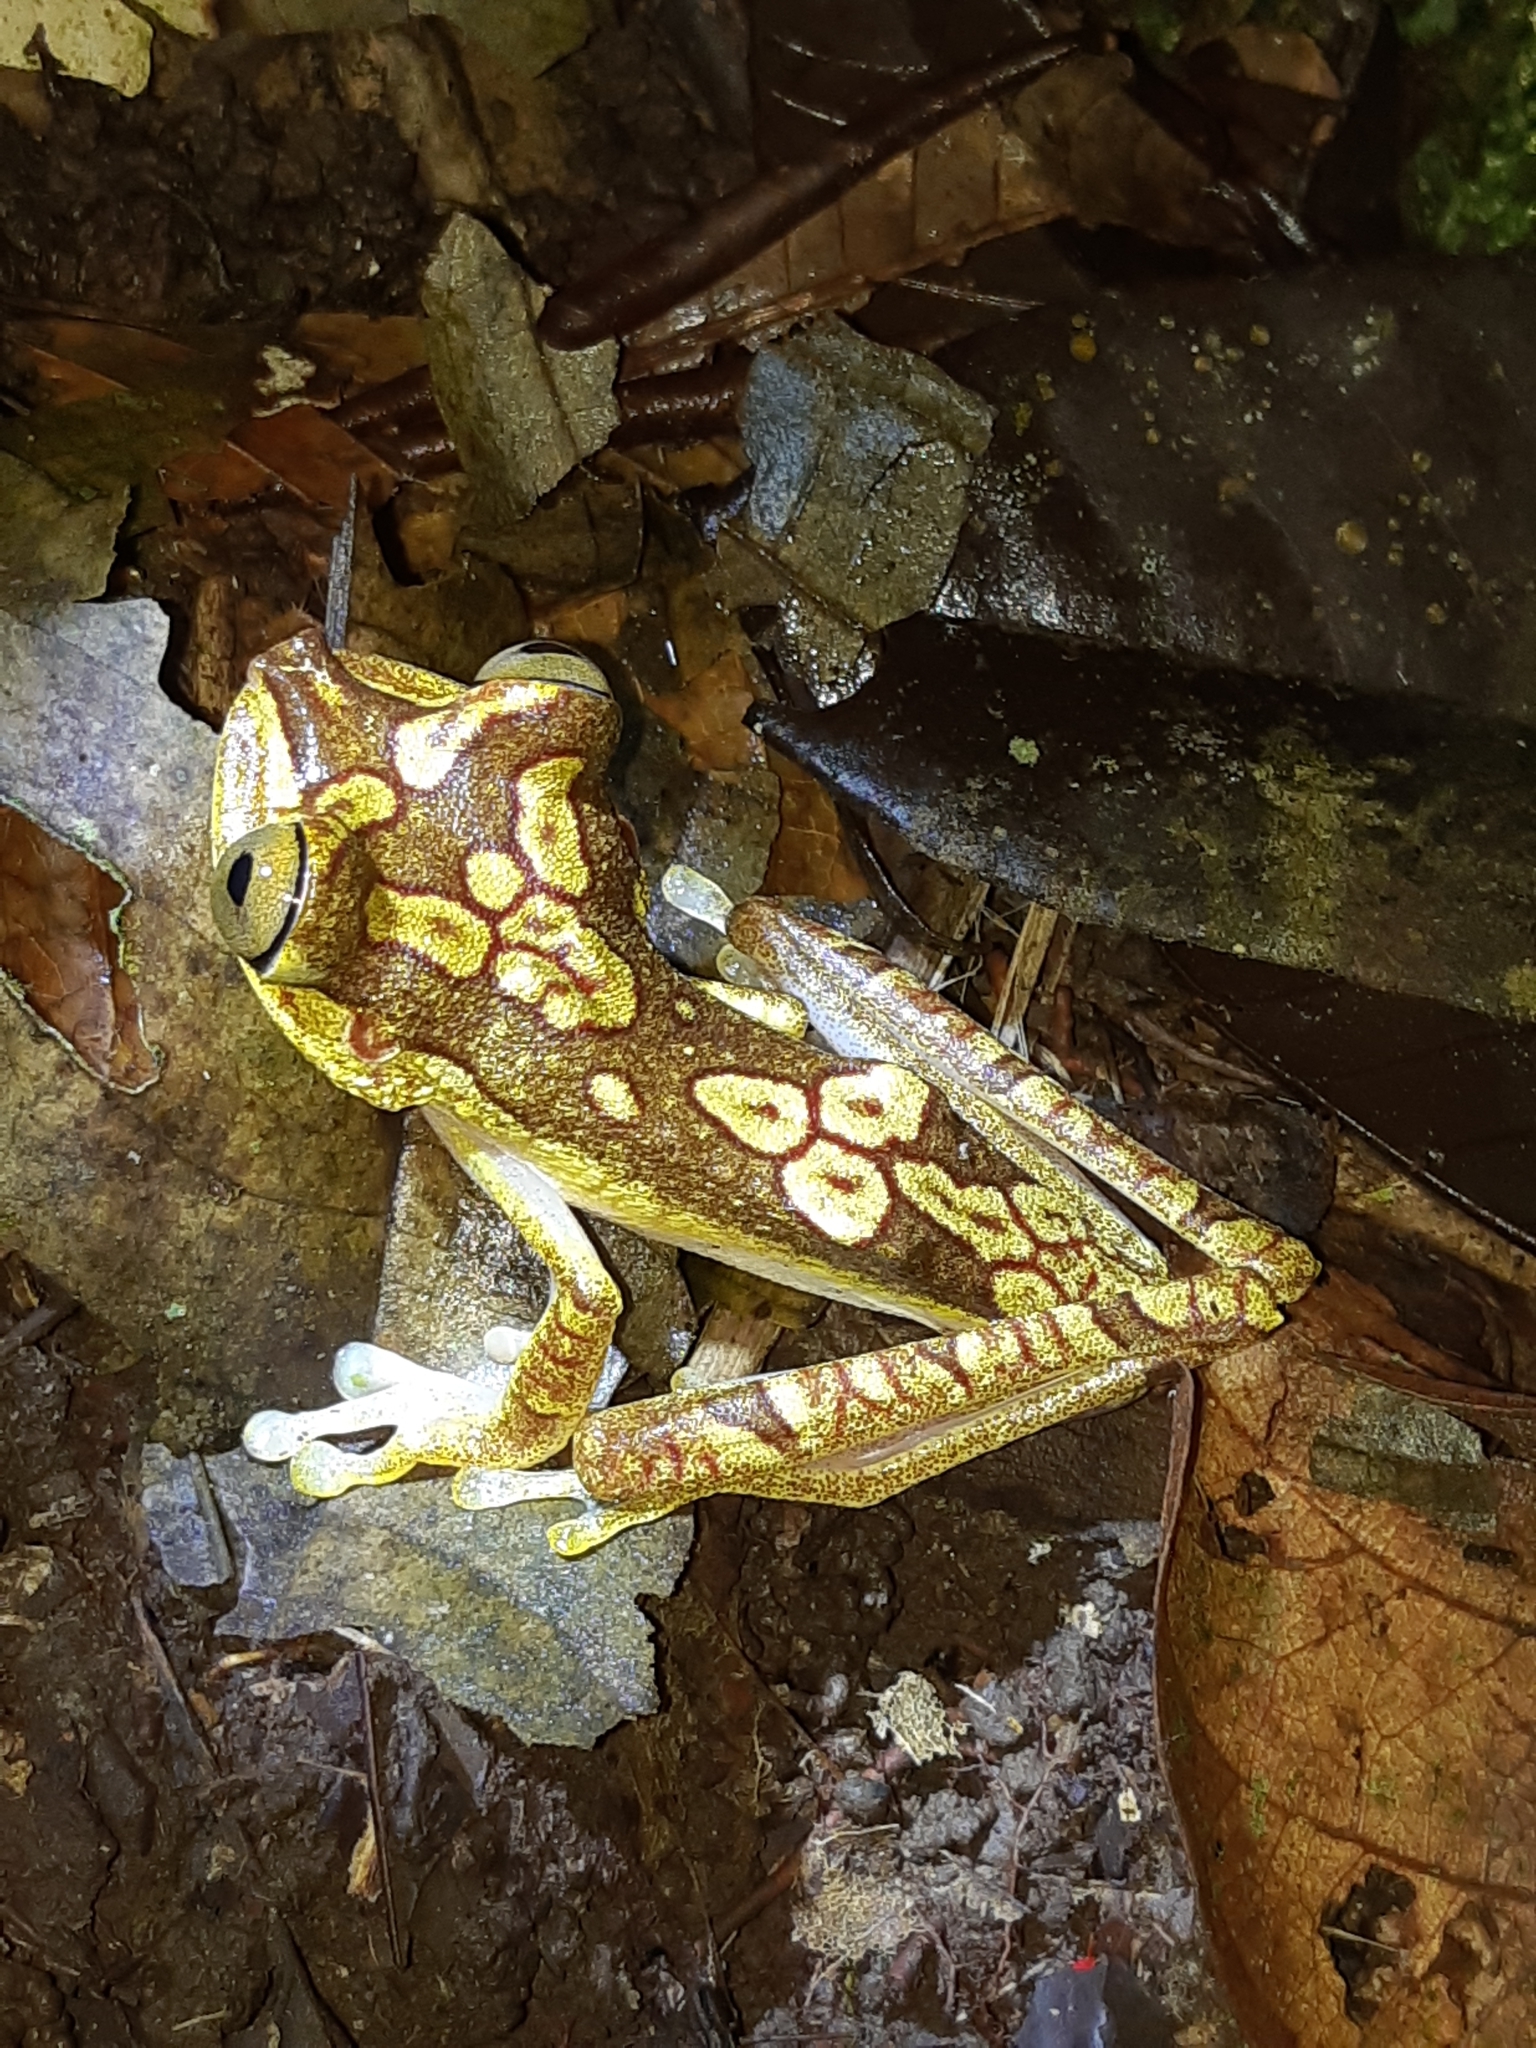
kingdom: Animalia
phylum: Chordata
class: Amphibia
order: Anura
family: Hylidae
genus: Boana
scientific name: Boana picturata
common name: Imbabura treefrog
